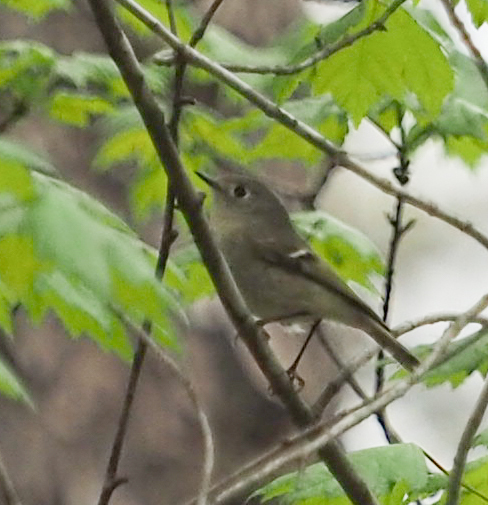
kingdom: Animalia
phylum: Chordata
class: Aves
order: Passeriformes
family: Regulidae
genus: Regulus
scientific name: Regulus calendula
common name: Ruby-crowned kinglet
